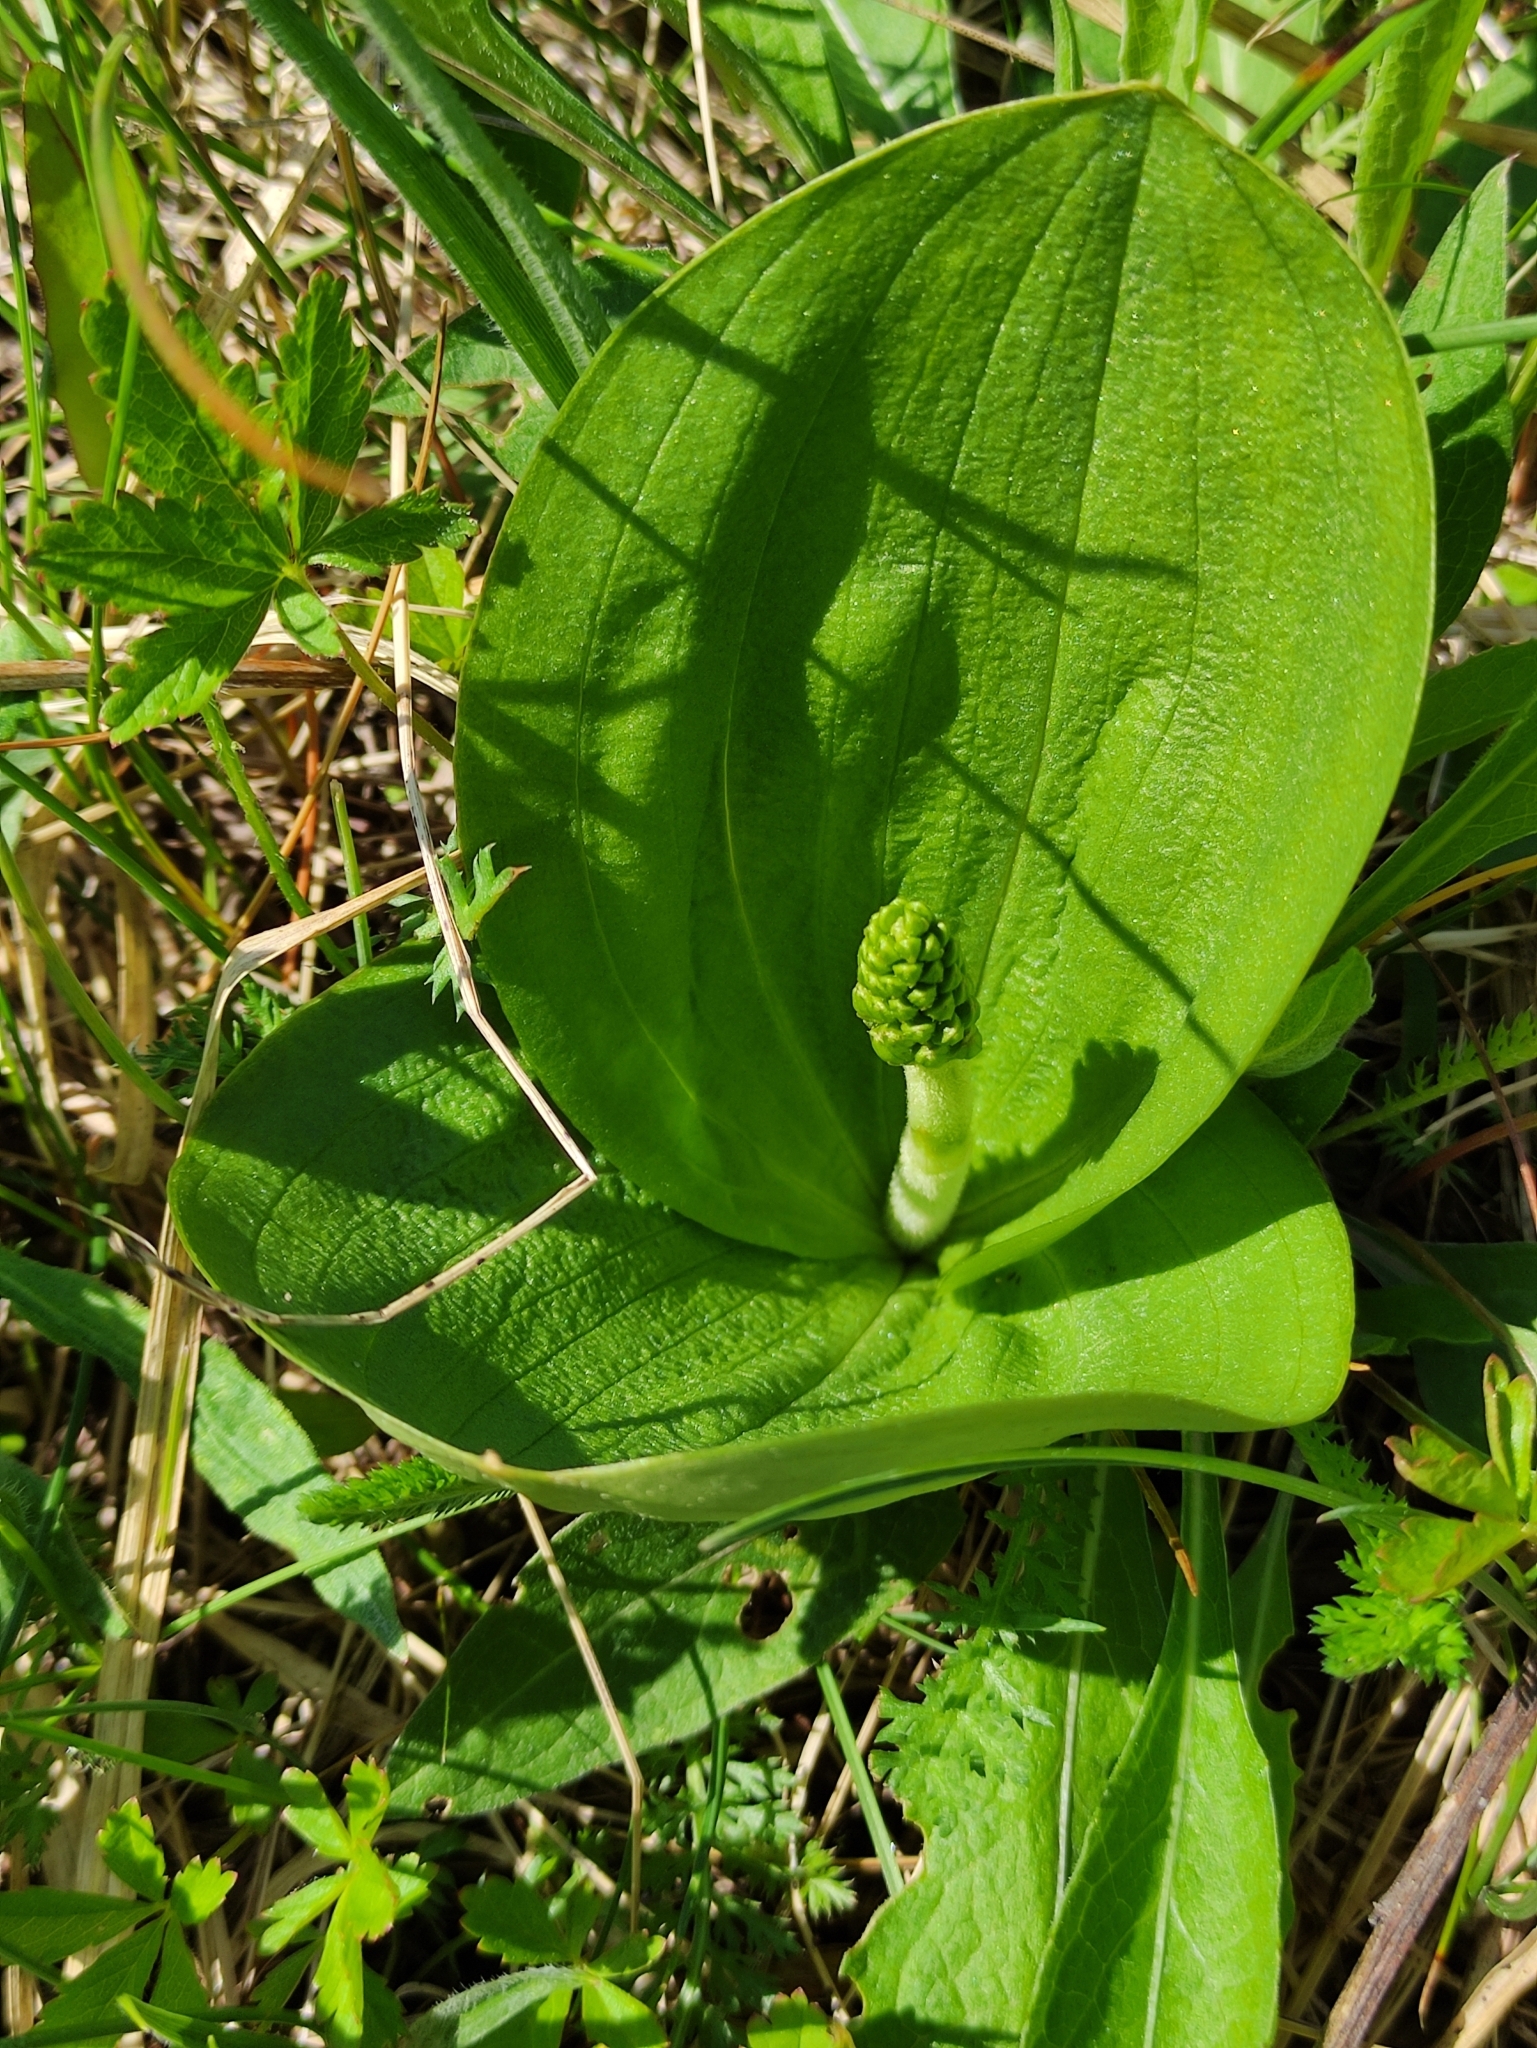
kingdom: Plantae
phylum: Tracheophyta
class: Liliopsida
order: Asparagales
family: Orchidaceae
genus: Neottia
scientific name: Neottia ovata
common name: Common twayblade
